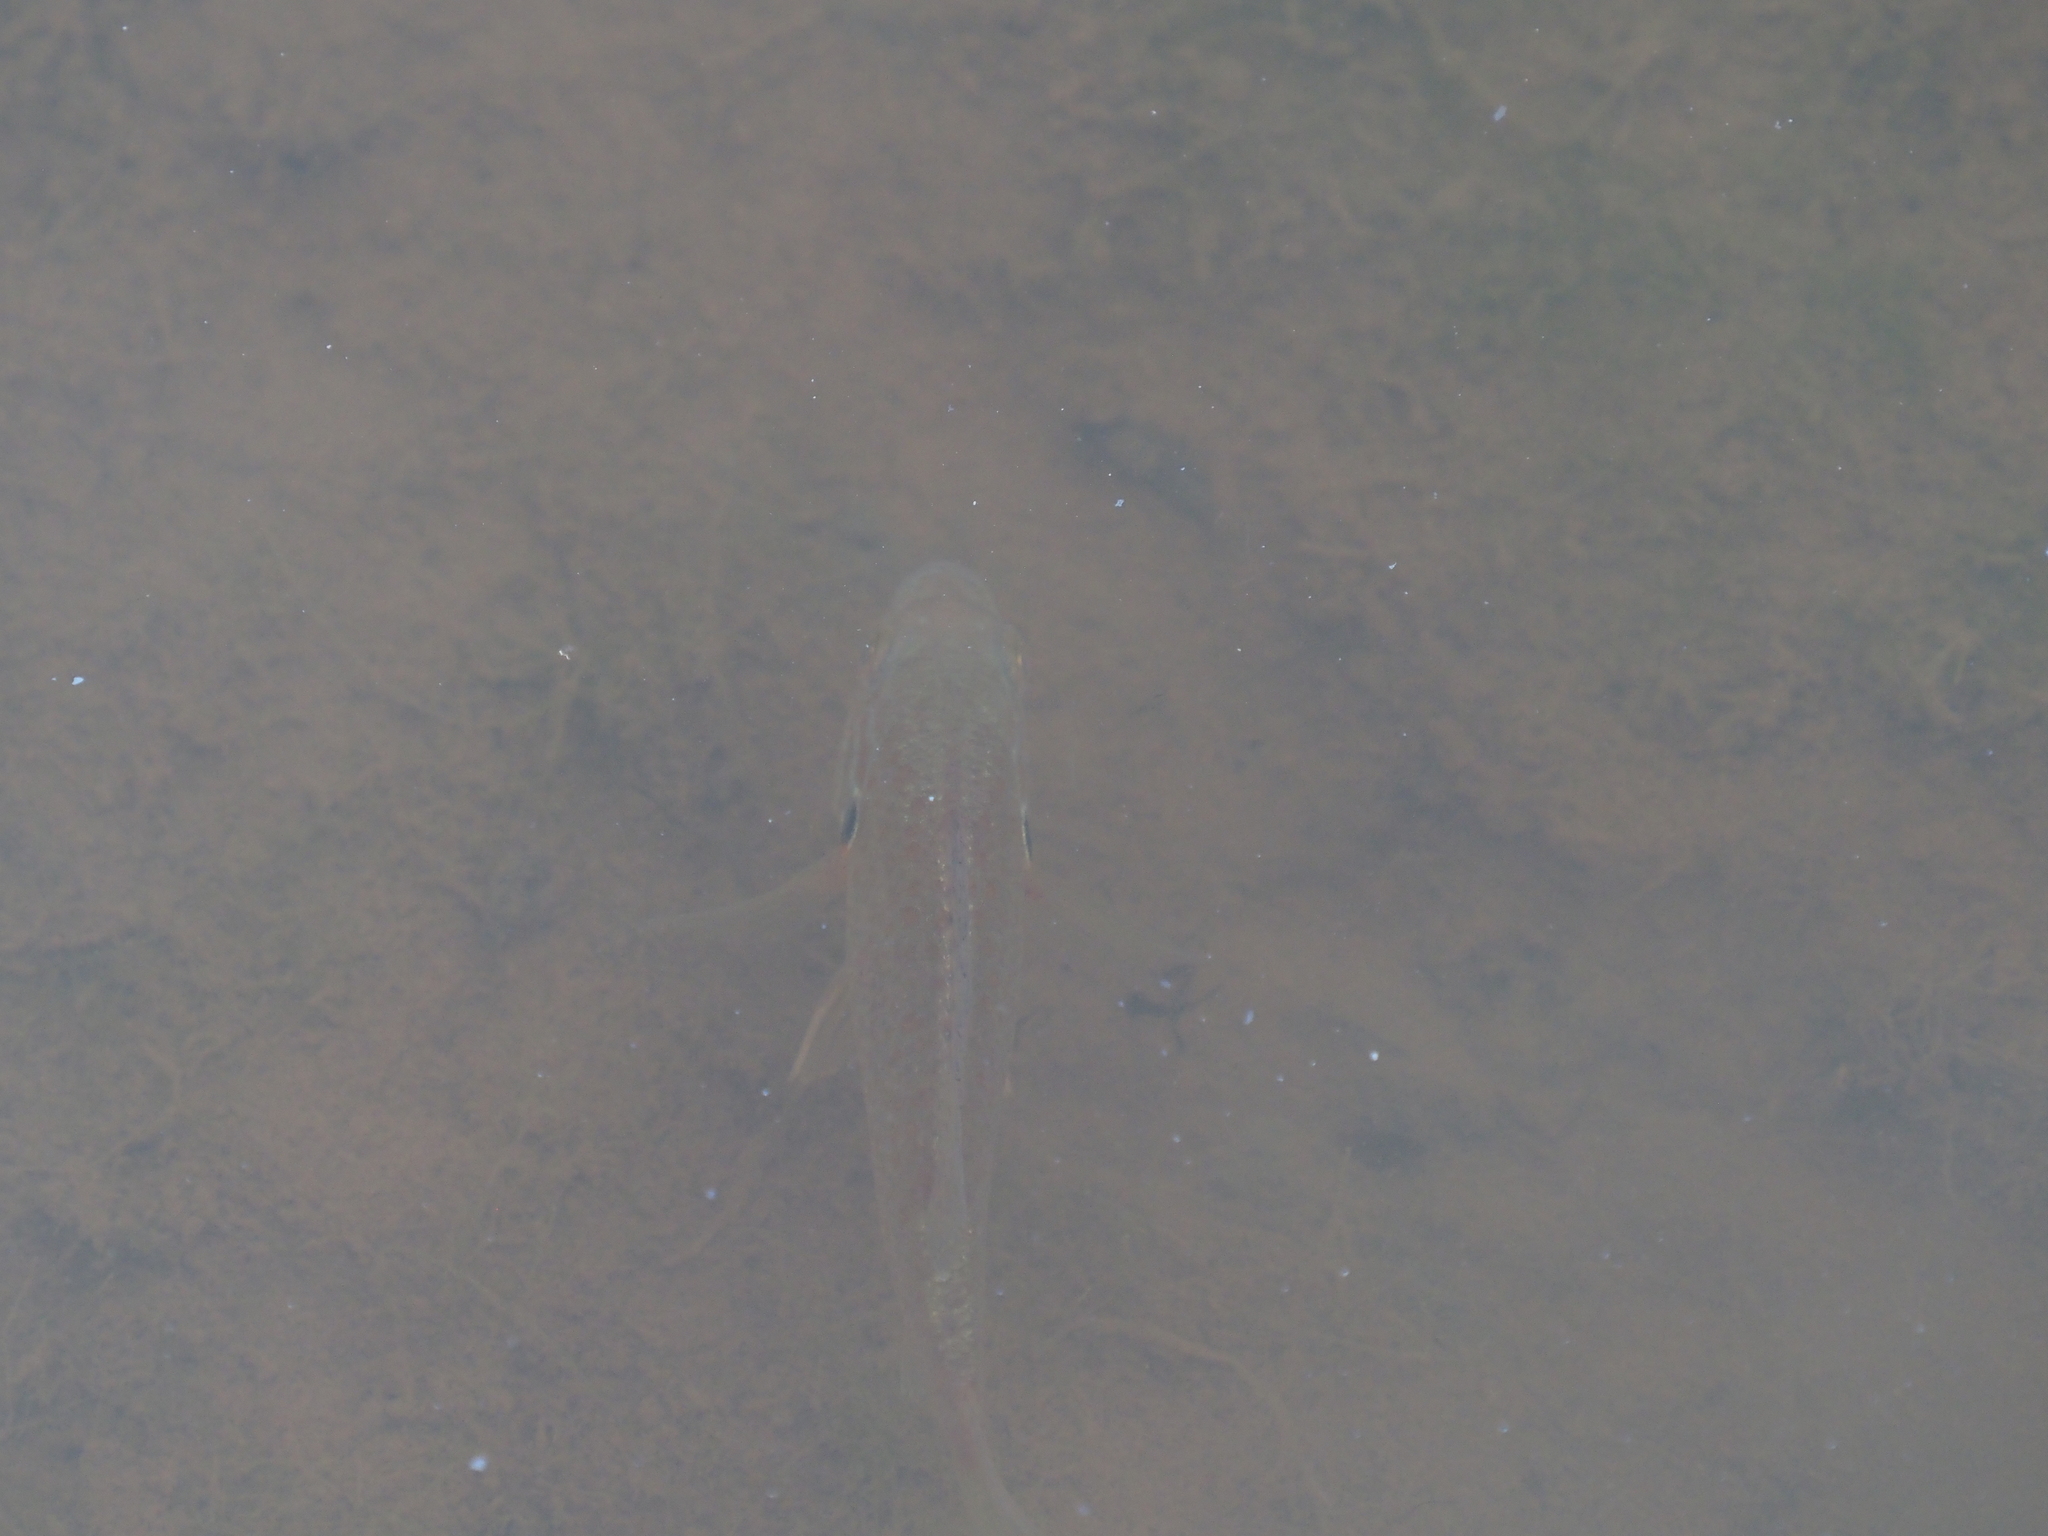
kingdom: Animalia
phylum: Chordata
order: Perciformes
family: Centrarchidae
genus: Lepomis
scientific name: Lepomis gibbosus
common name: Pumpkinseed
